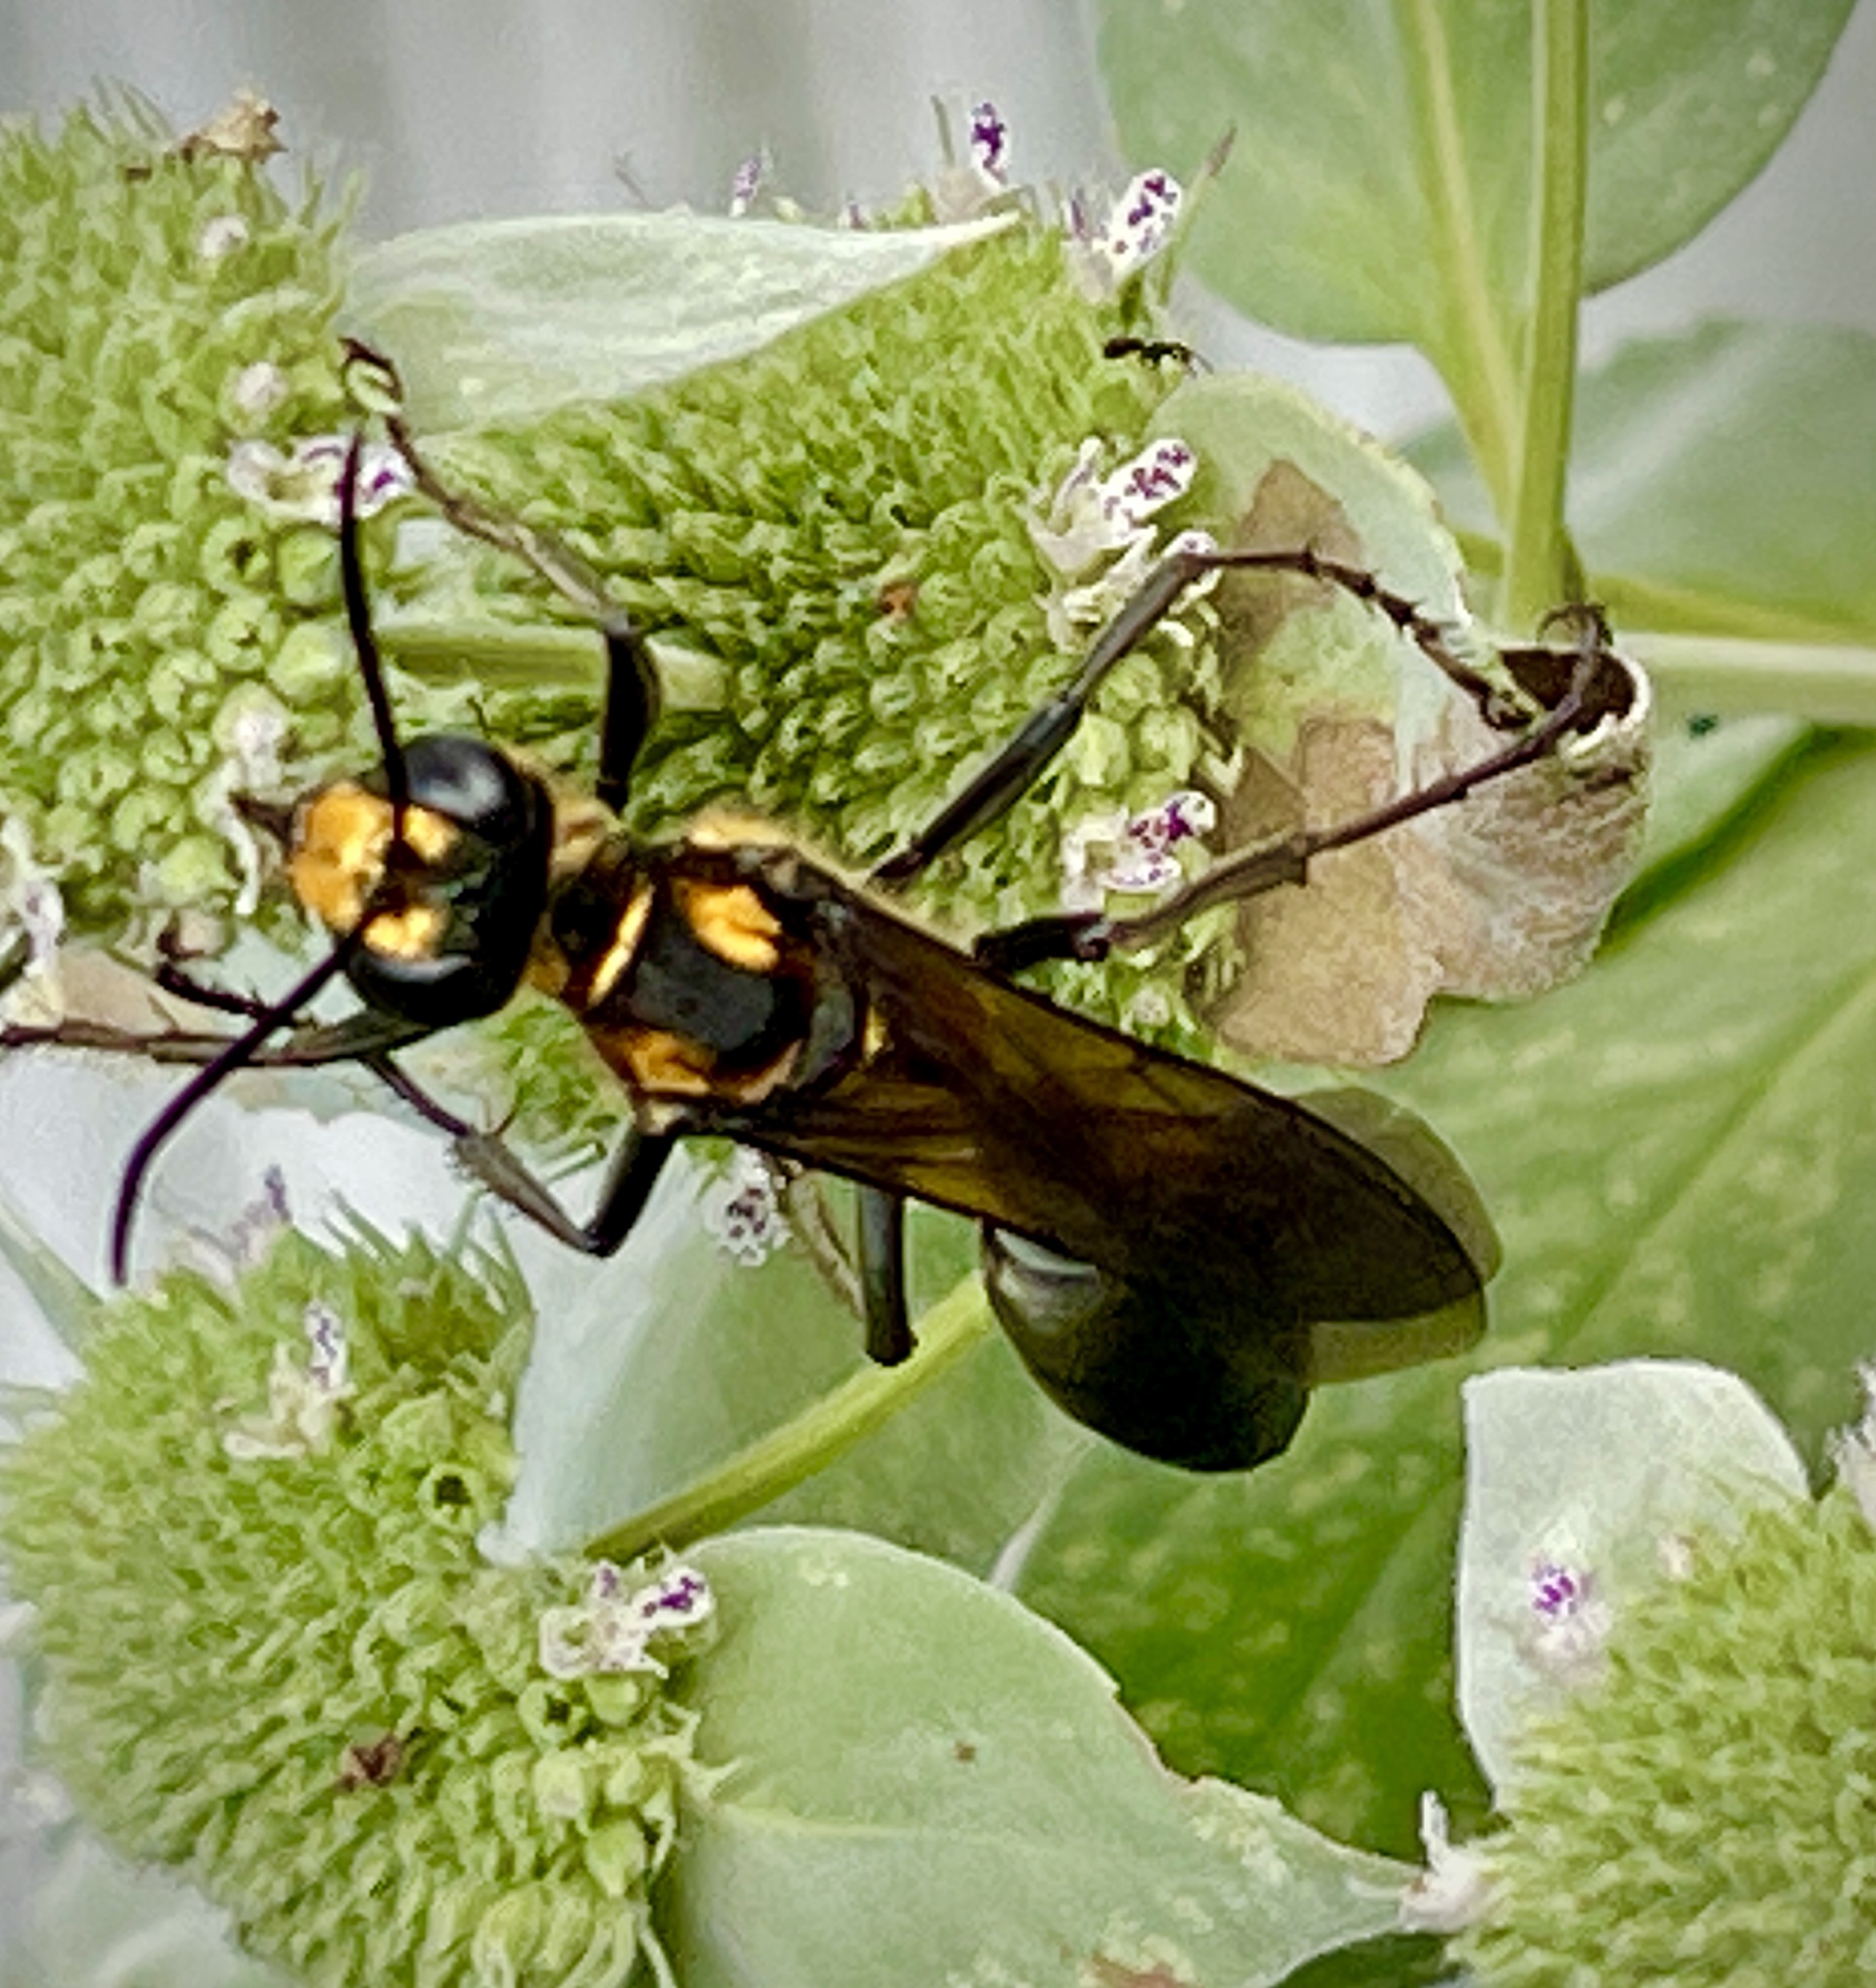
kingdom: Animalia
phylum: Arthropoda
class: Insecta
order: Hymenoptera
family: Sphecidae
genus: Sphex
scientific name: Sphex habenus
